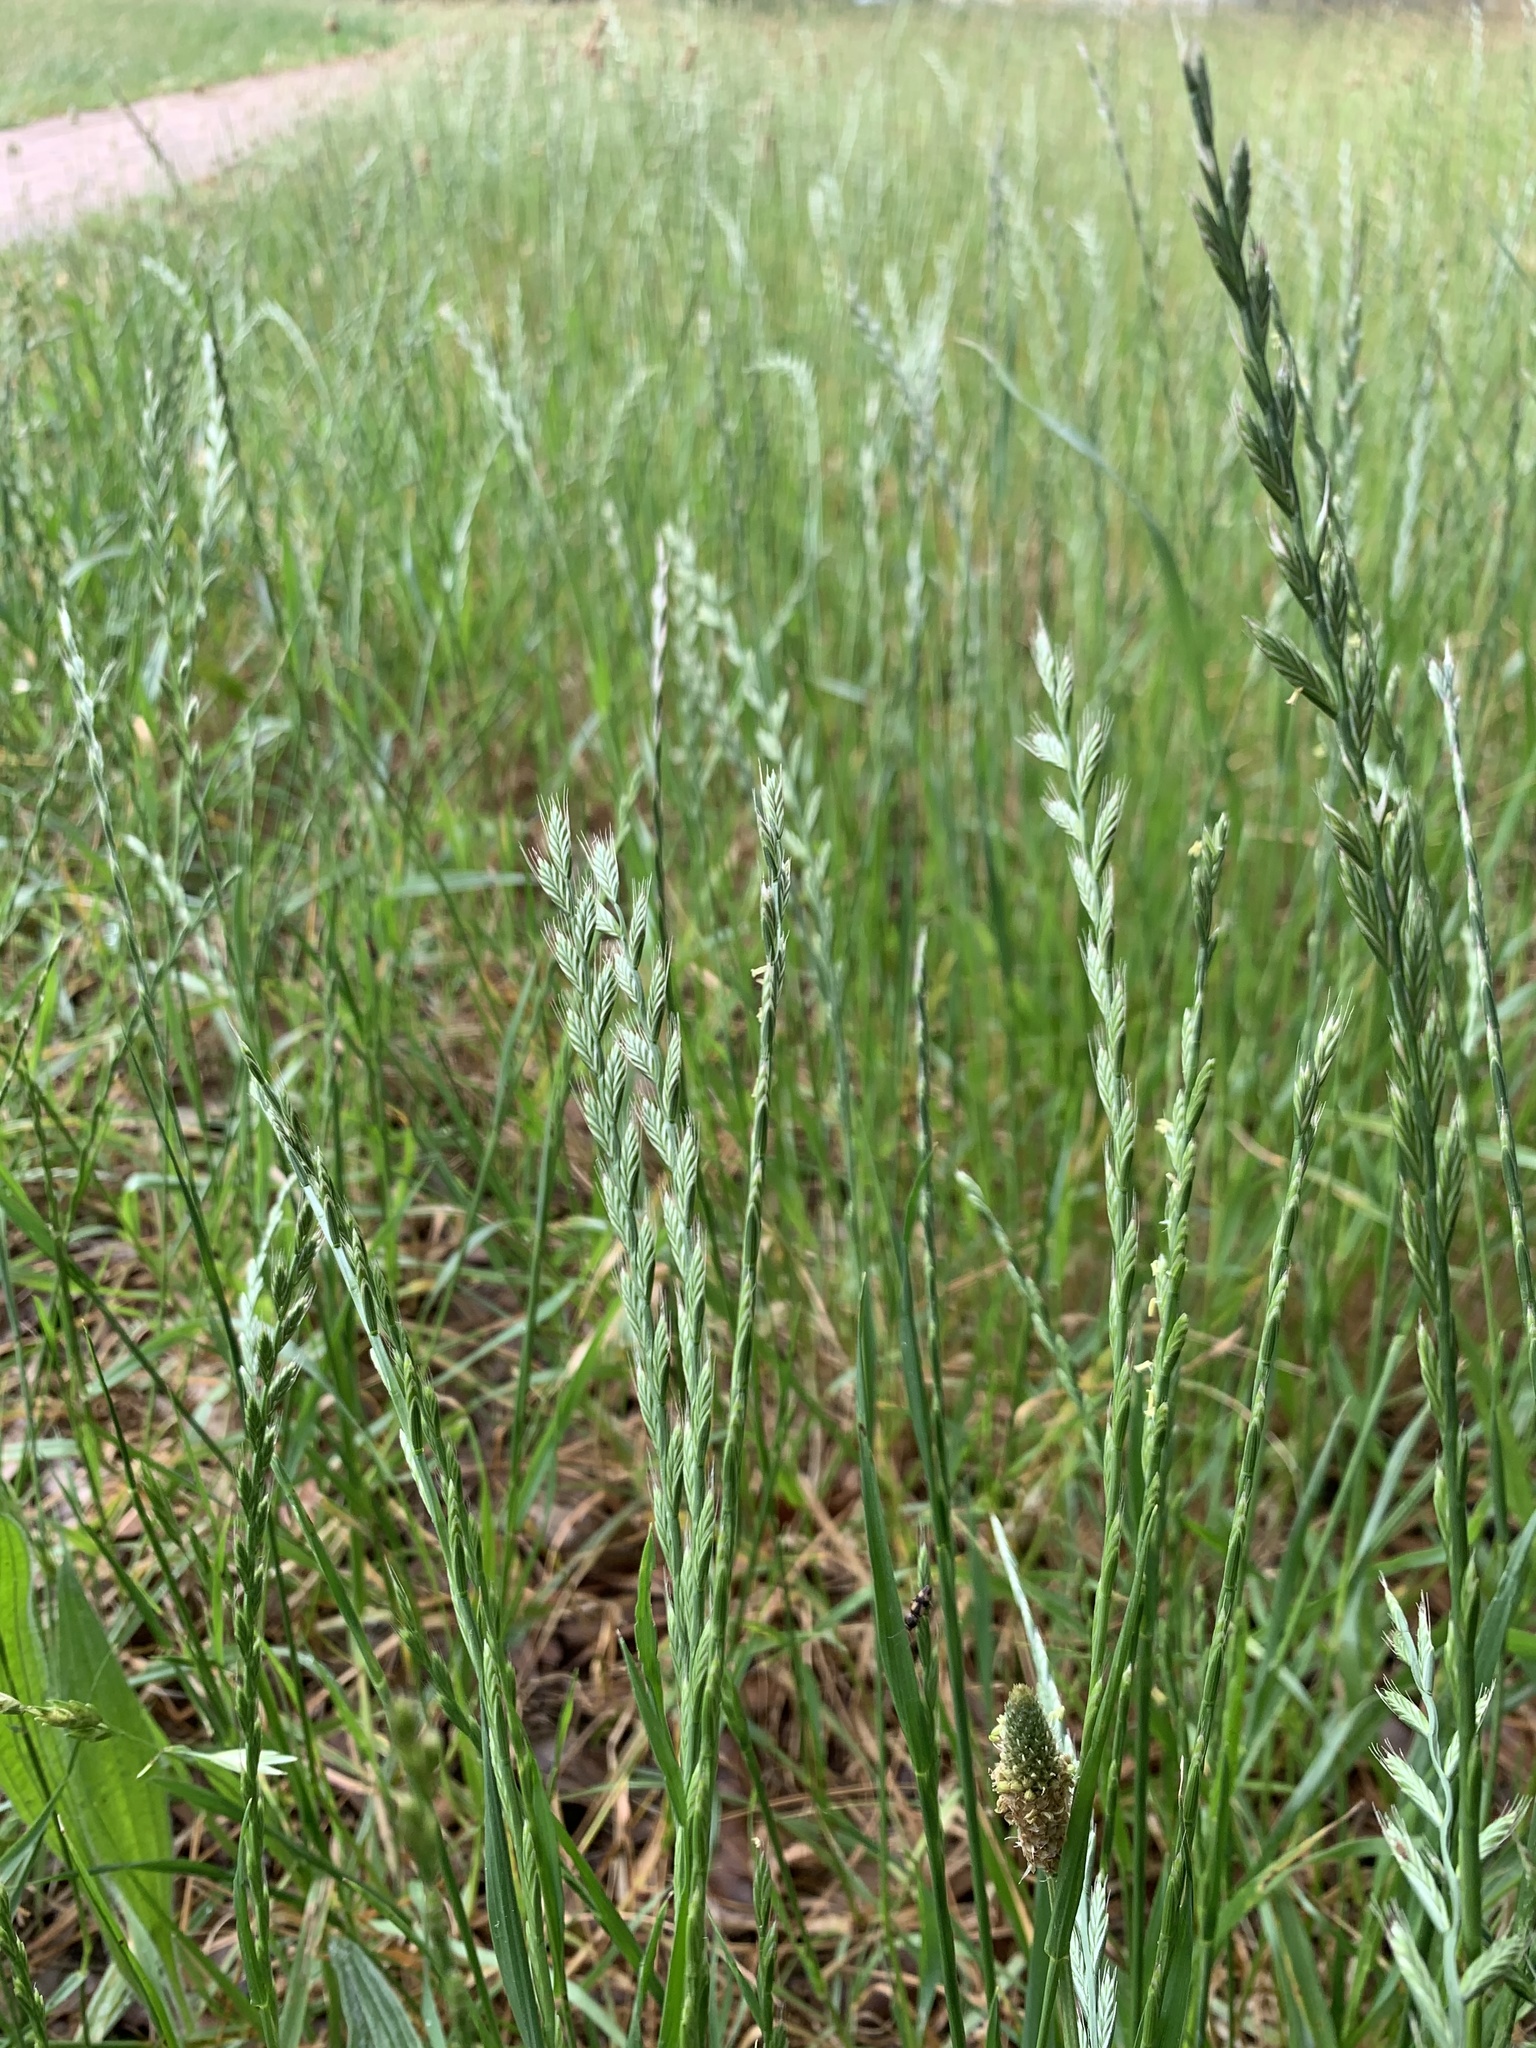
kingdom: Plantae
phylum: Tracheophyta
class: Liliopsida
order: Poales
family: Poaceae
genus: Lolium
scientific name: Lolium multiflorum
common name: Annual ryegrass
